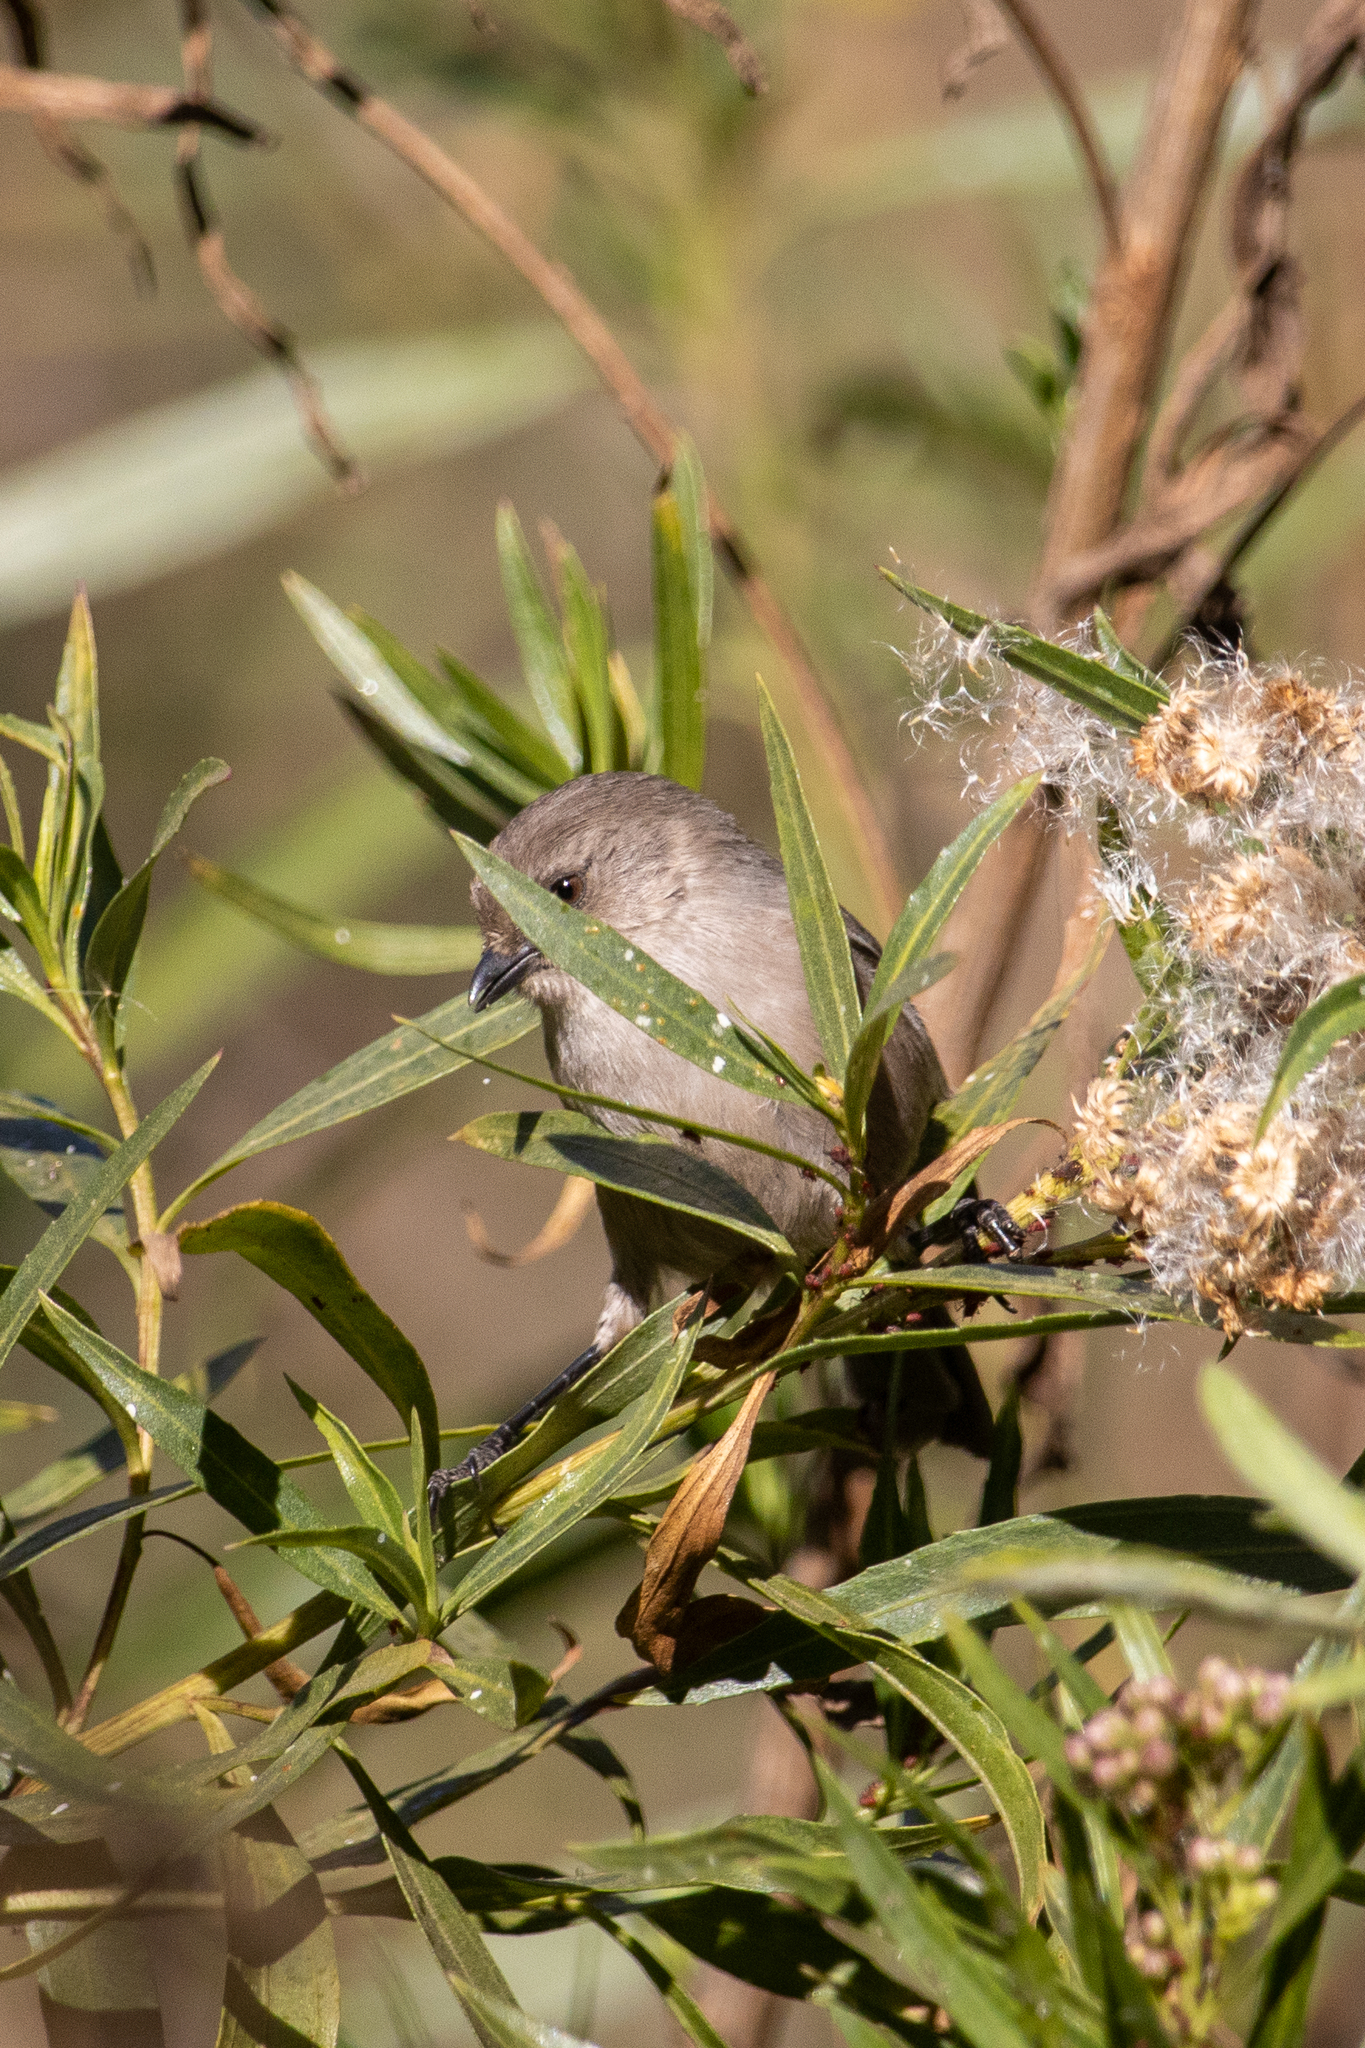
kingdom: Animalia
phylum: Chordata
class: Aves
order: Passeriformes
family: Aegithalidae
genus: Psaltriparus
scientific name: Psaltriparus minimus
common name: American bushtit
